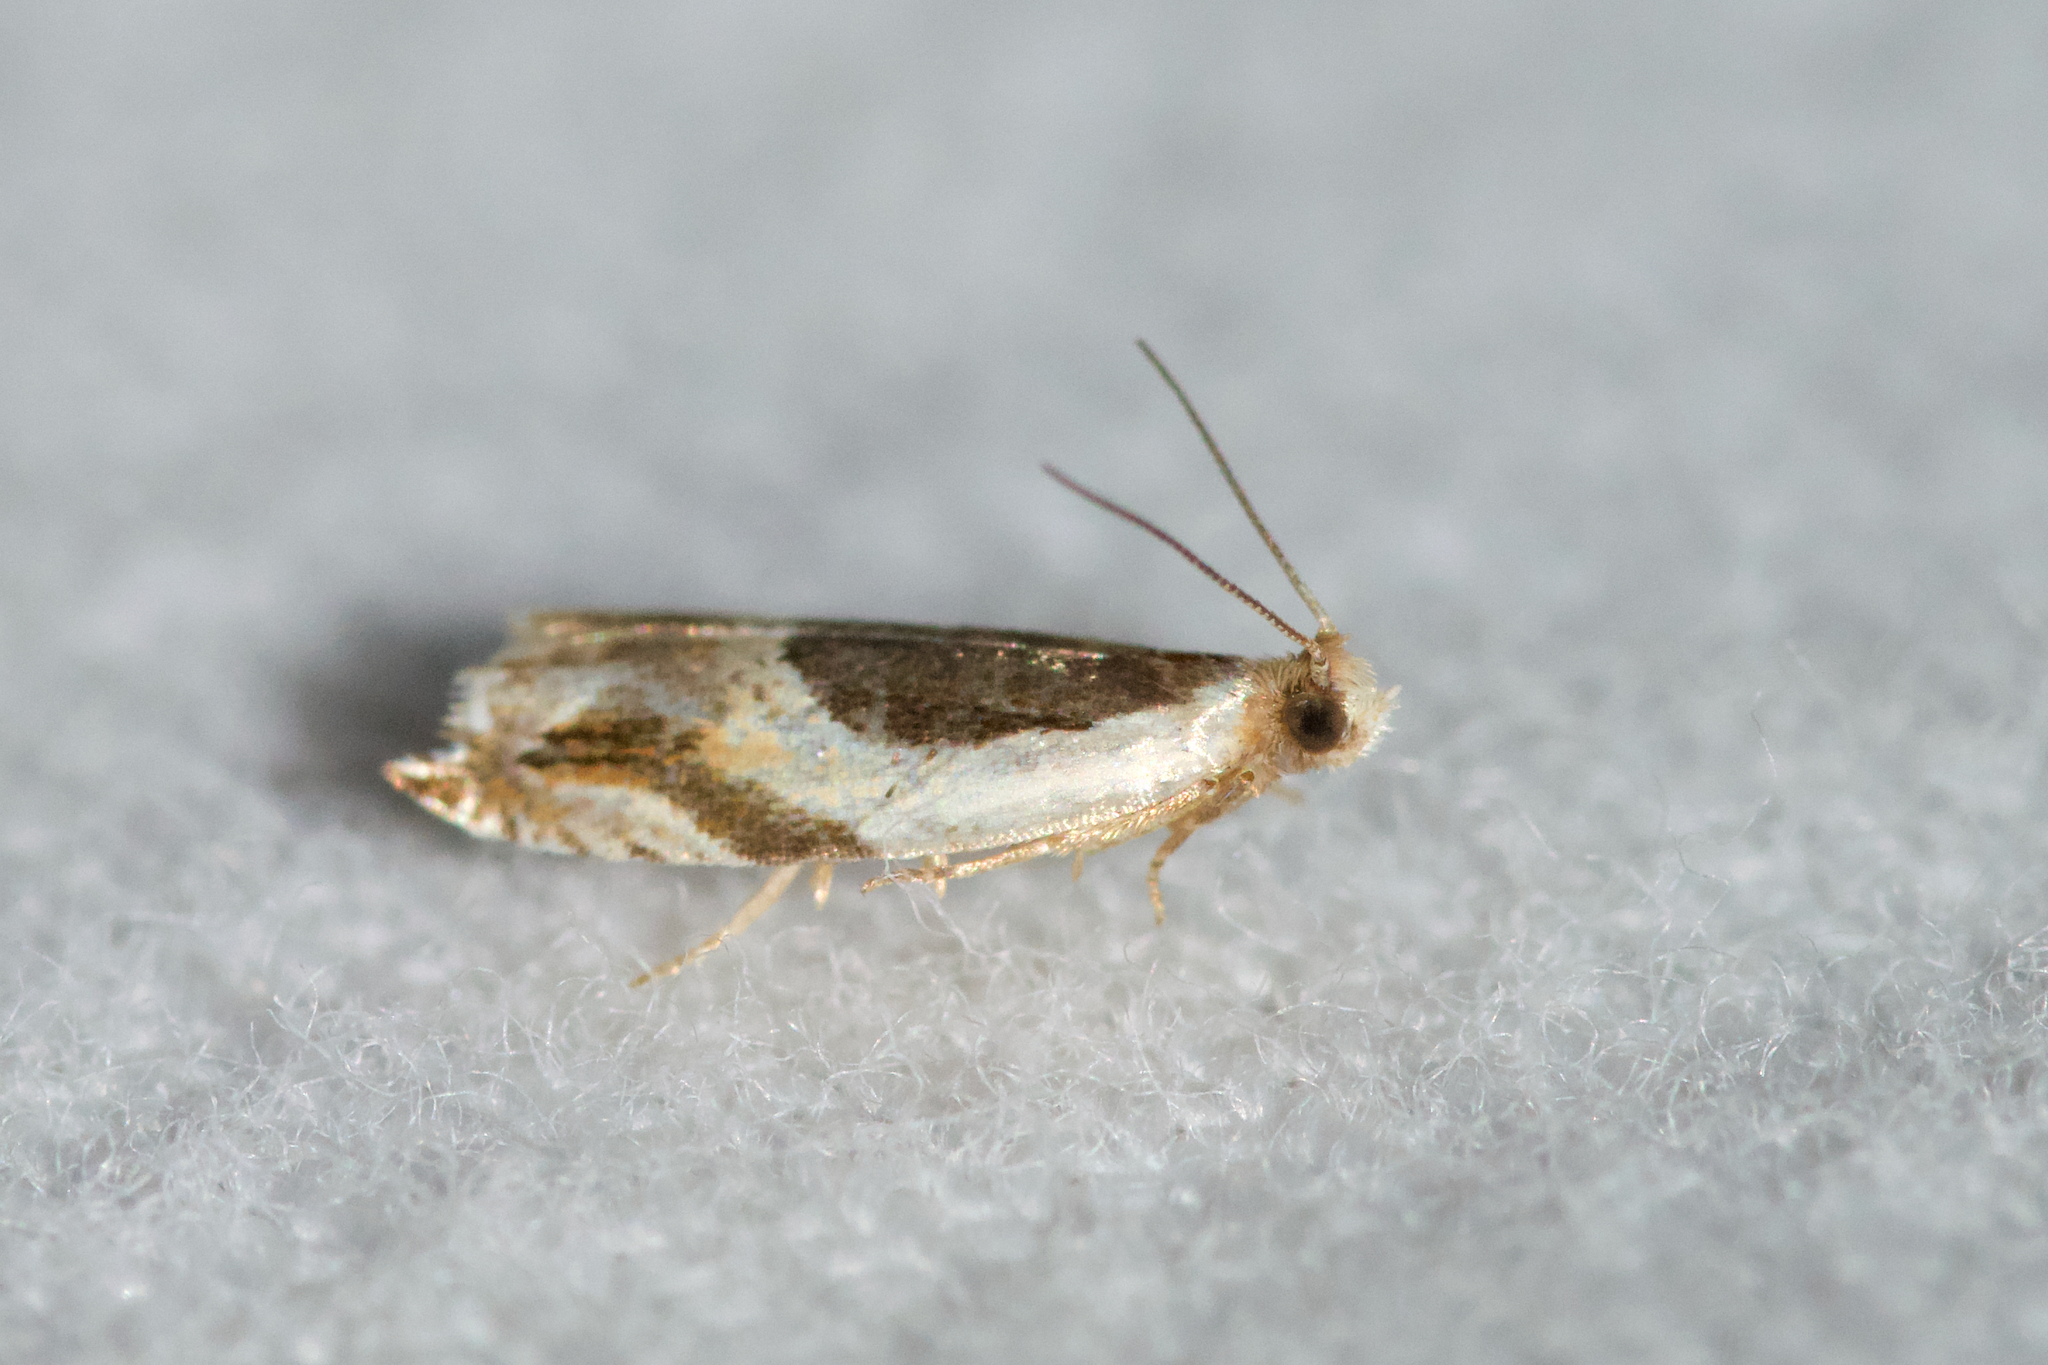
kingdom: Animalia
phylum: Arthropoda
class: Insecta
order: Lepidoptera
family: Tortricidae
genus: Ancylis
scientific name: Ancylis burgessiana
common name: Oak leaffolder moth
